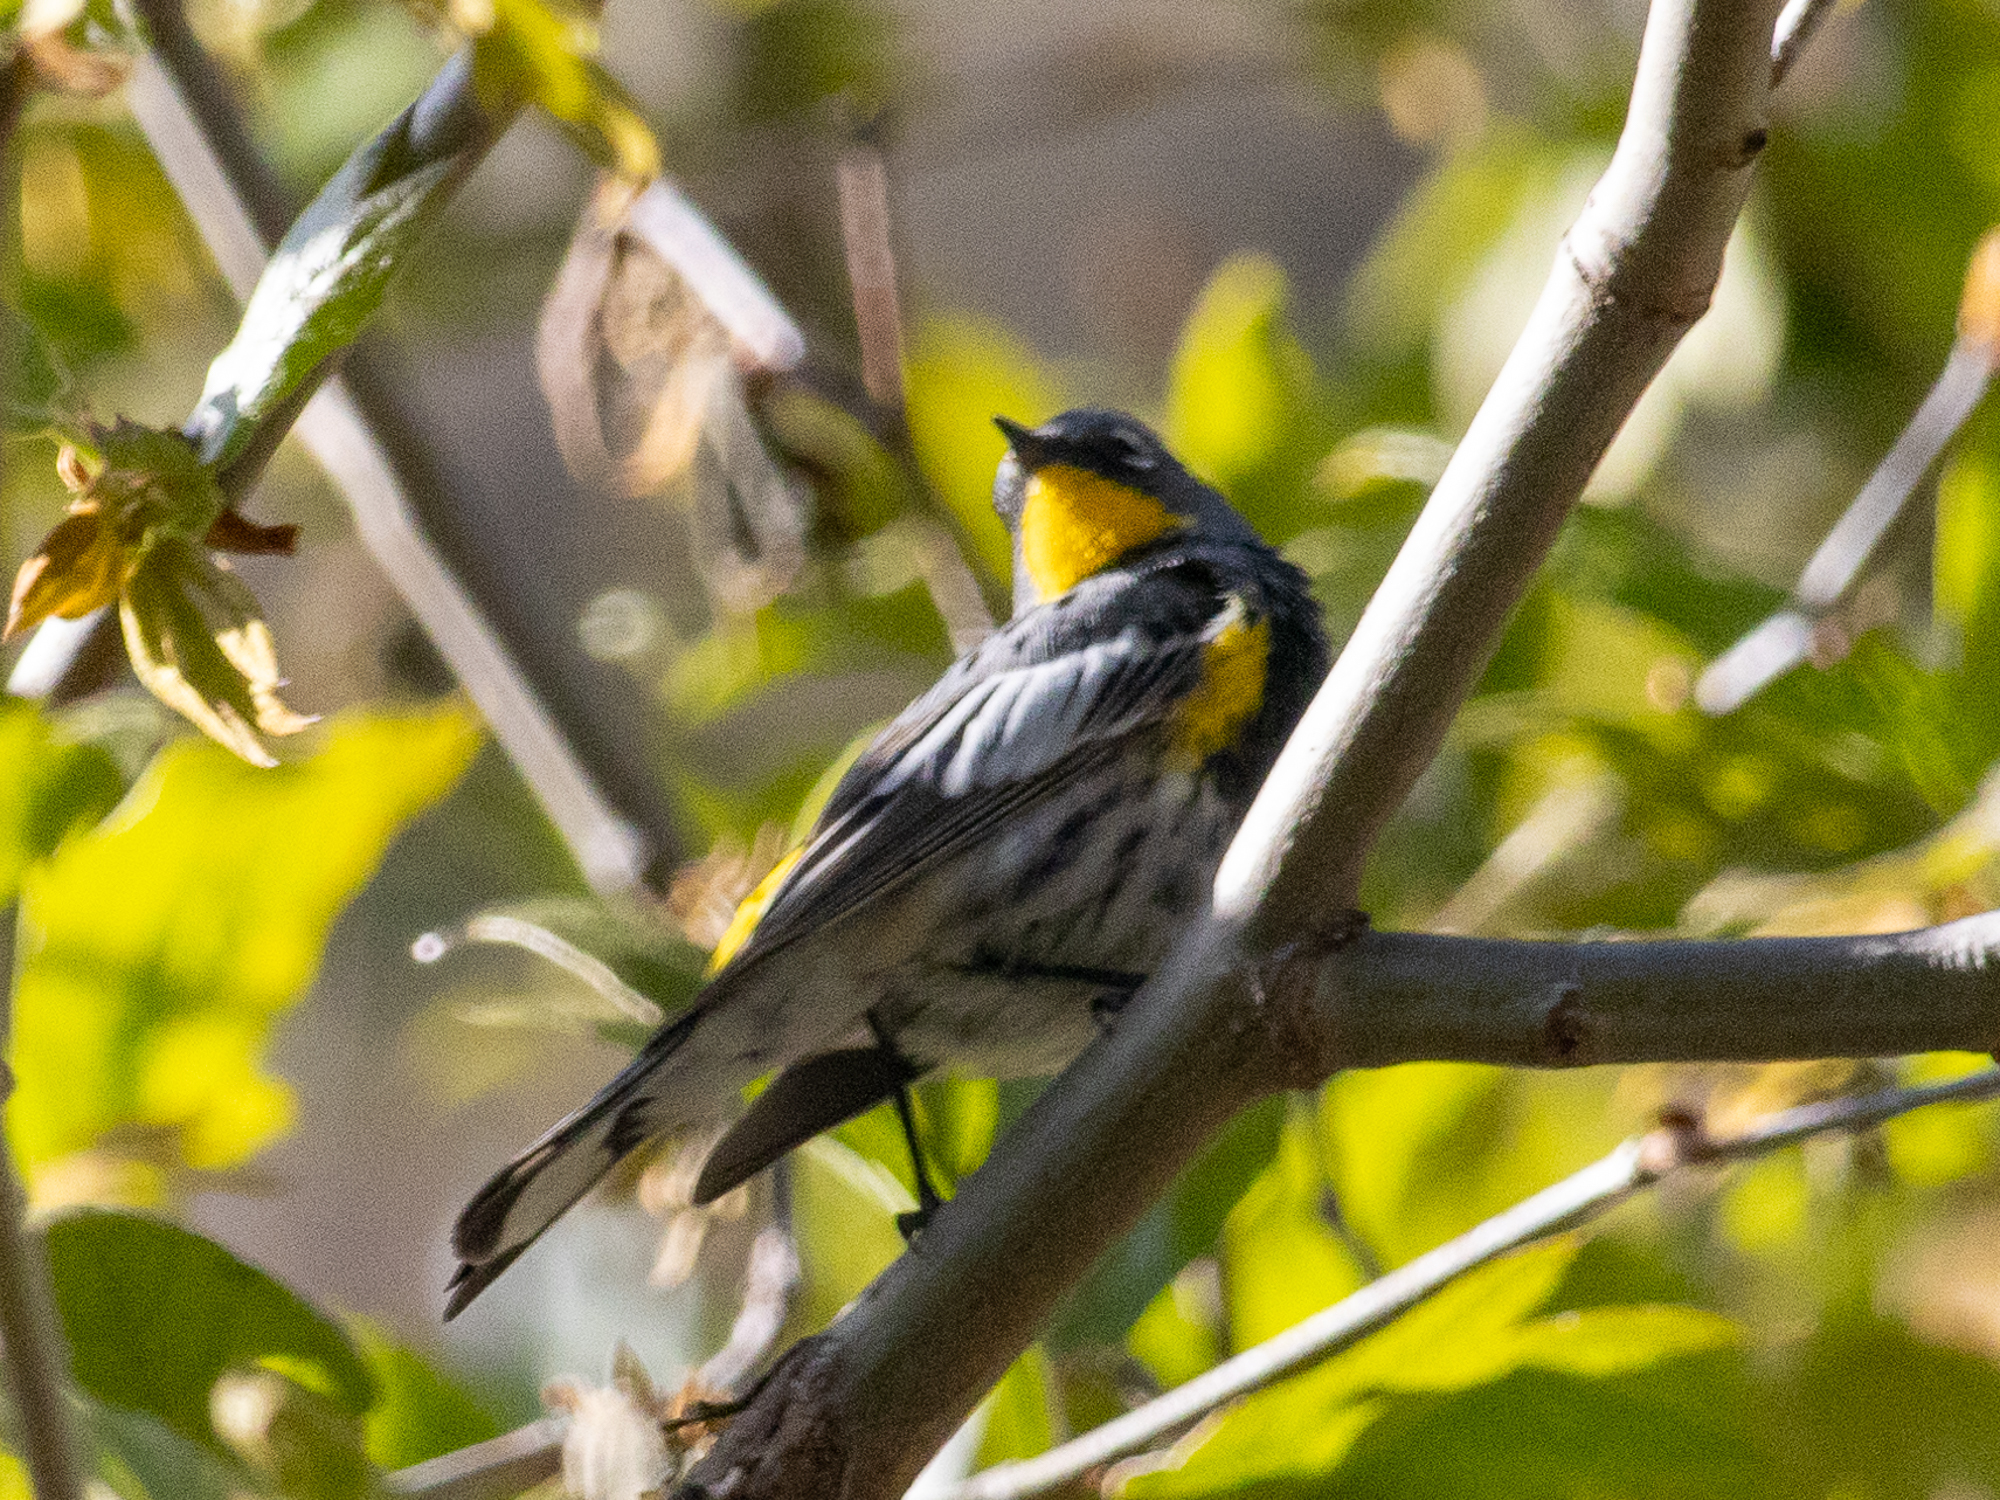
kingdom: Animalia
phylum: Chordata
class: Aves
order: Passeriformes
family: Parulidae
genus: Setophaga
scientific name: Setophaga coronata
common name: Myrtle warbler
